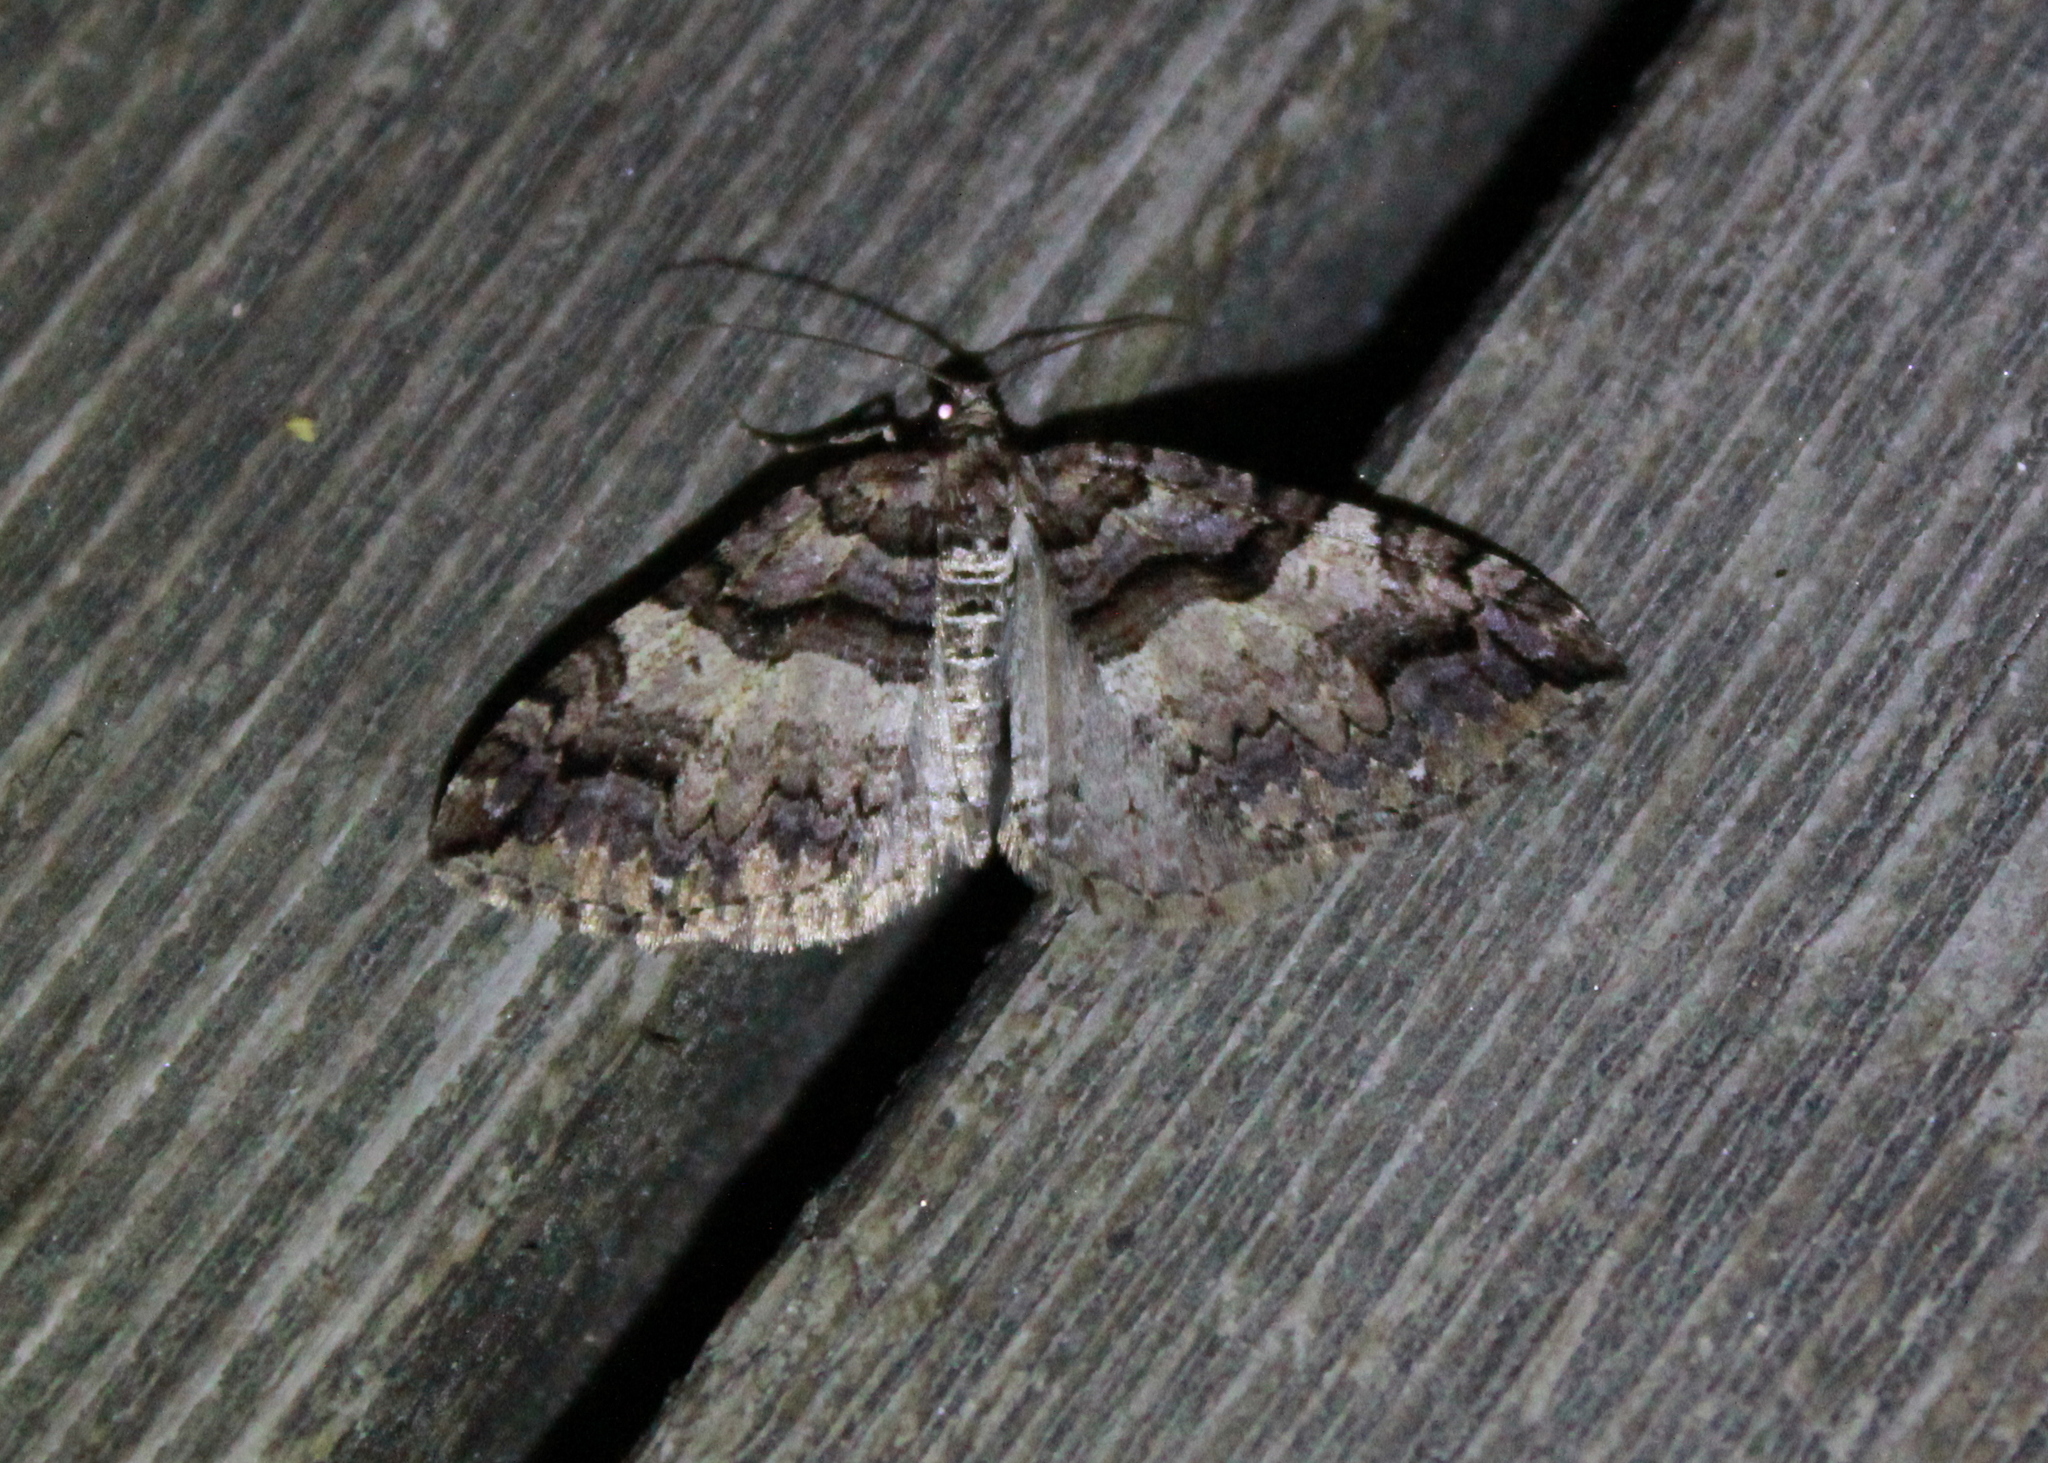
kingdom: Animalia
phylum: Arthropoda
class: Insecta
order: Lepidoptera
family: Geometridae
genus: Anticlea
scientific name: Anticlea vasiliata
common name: Variable carpet
